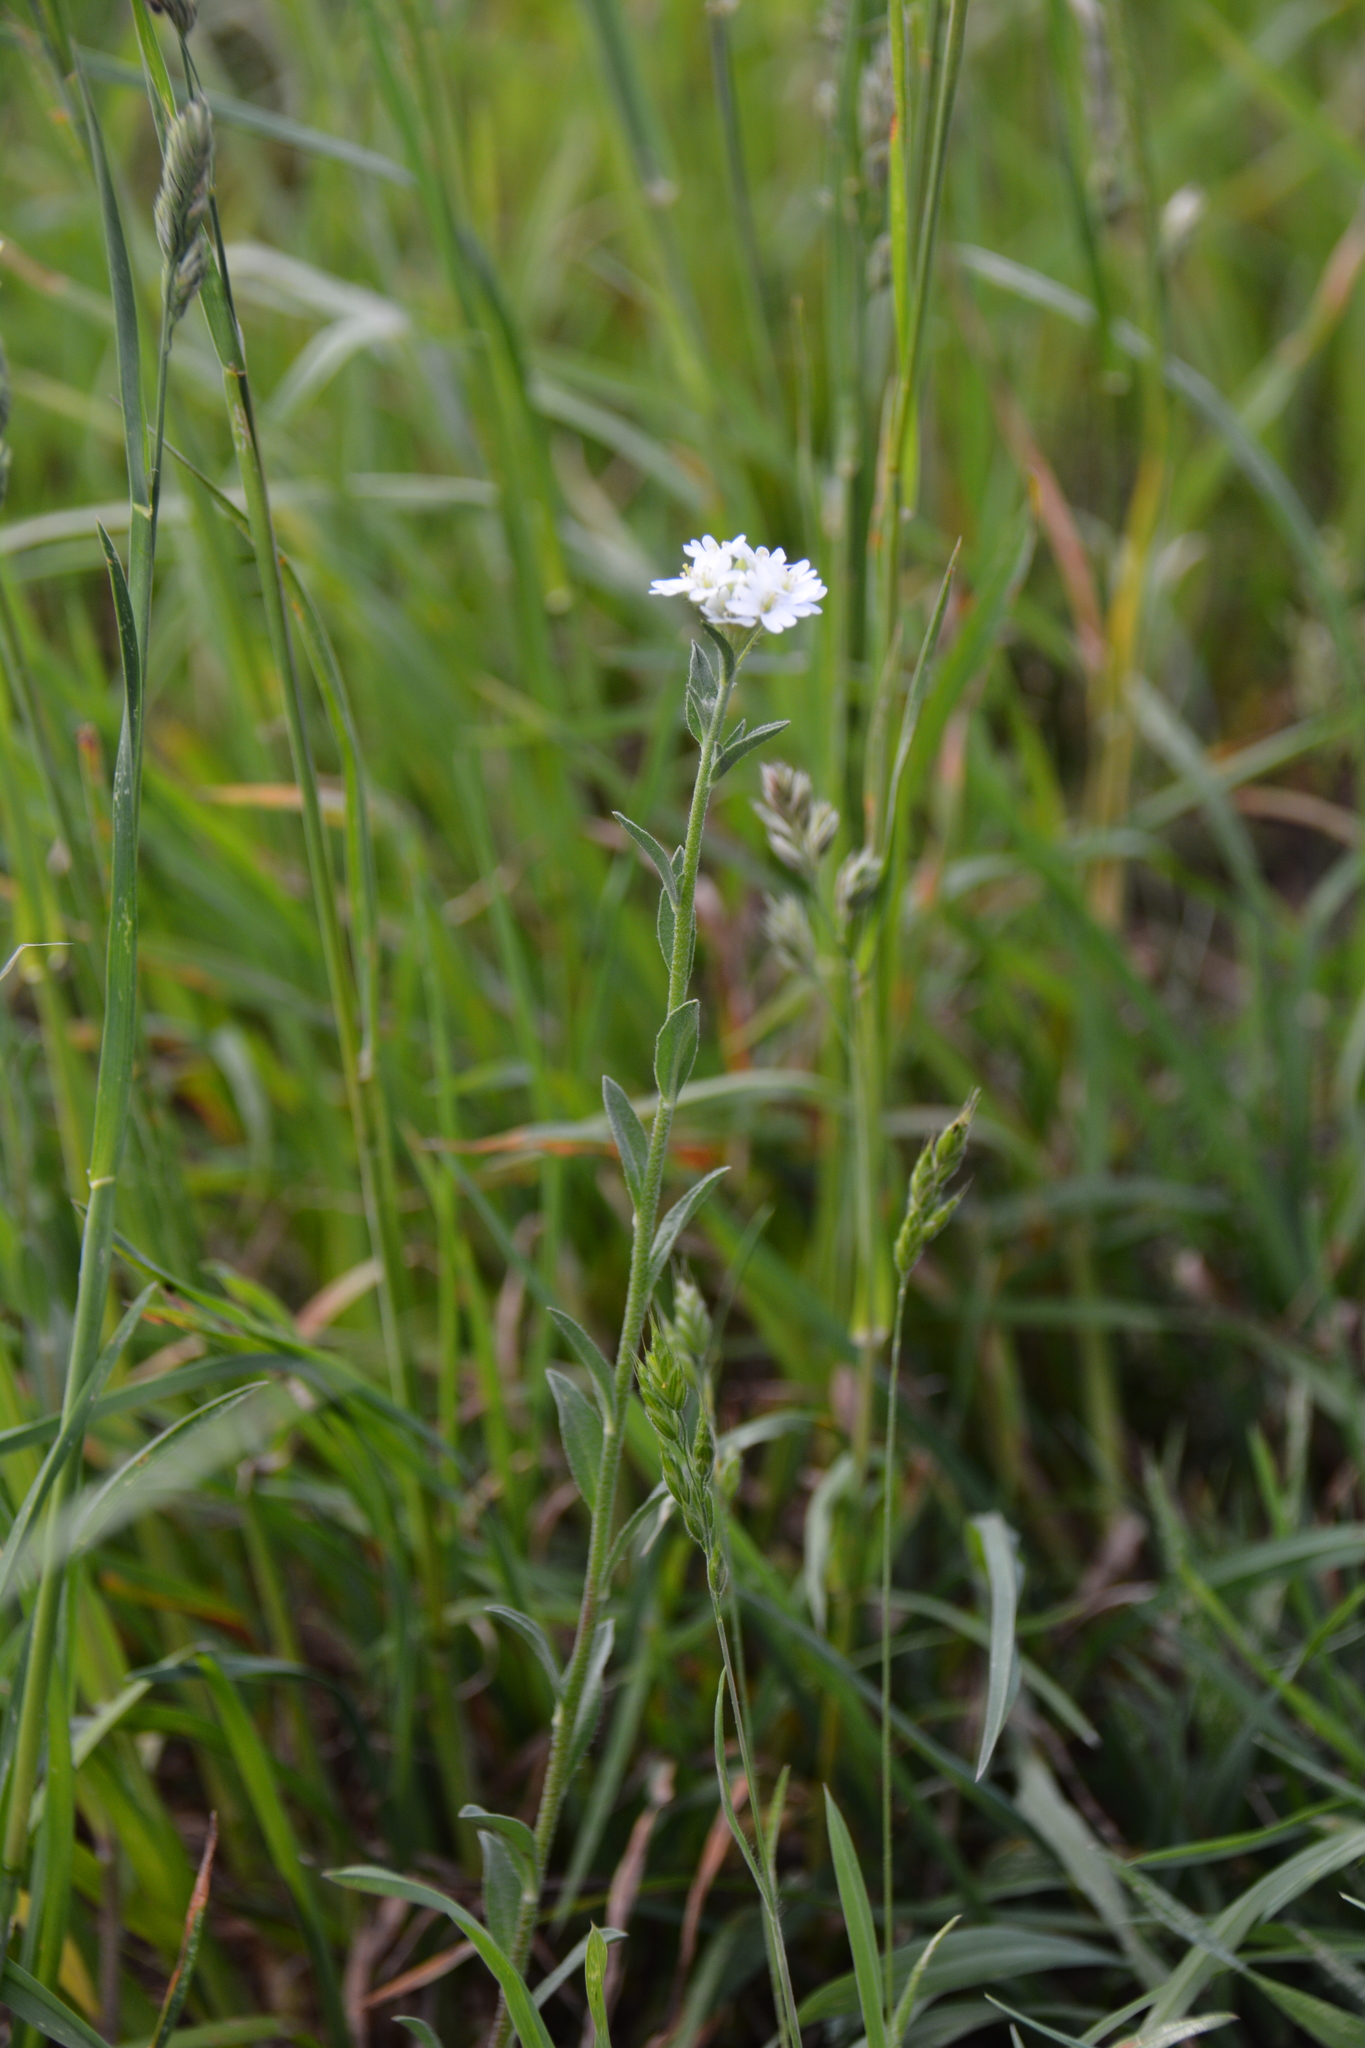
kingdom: Plantae
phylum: Tracheophyta
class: Magnoliopsida
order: Brassicales
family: Brassicaceae
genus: Berteroa
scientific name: Berteroa incana
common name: Hoary alison
